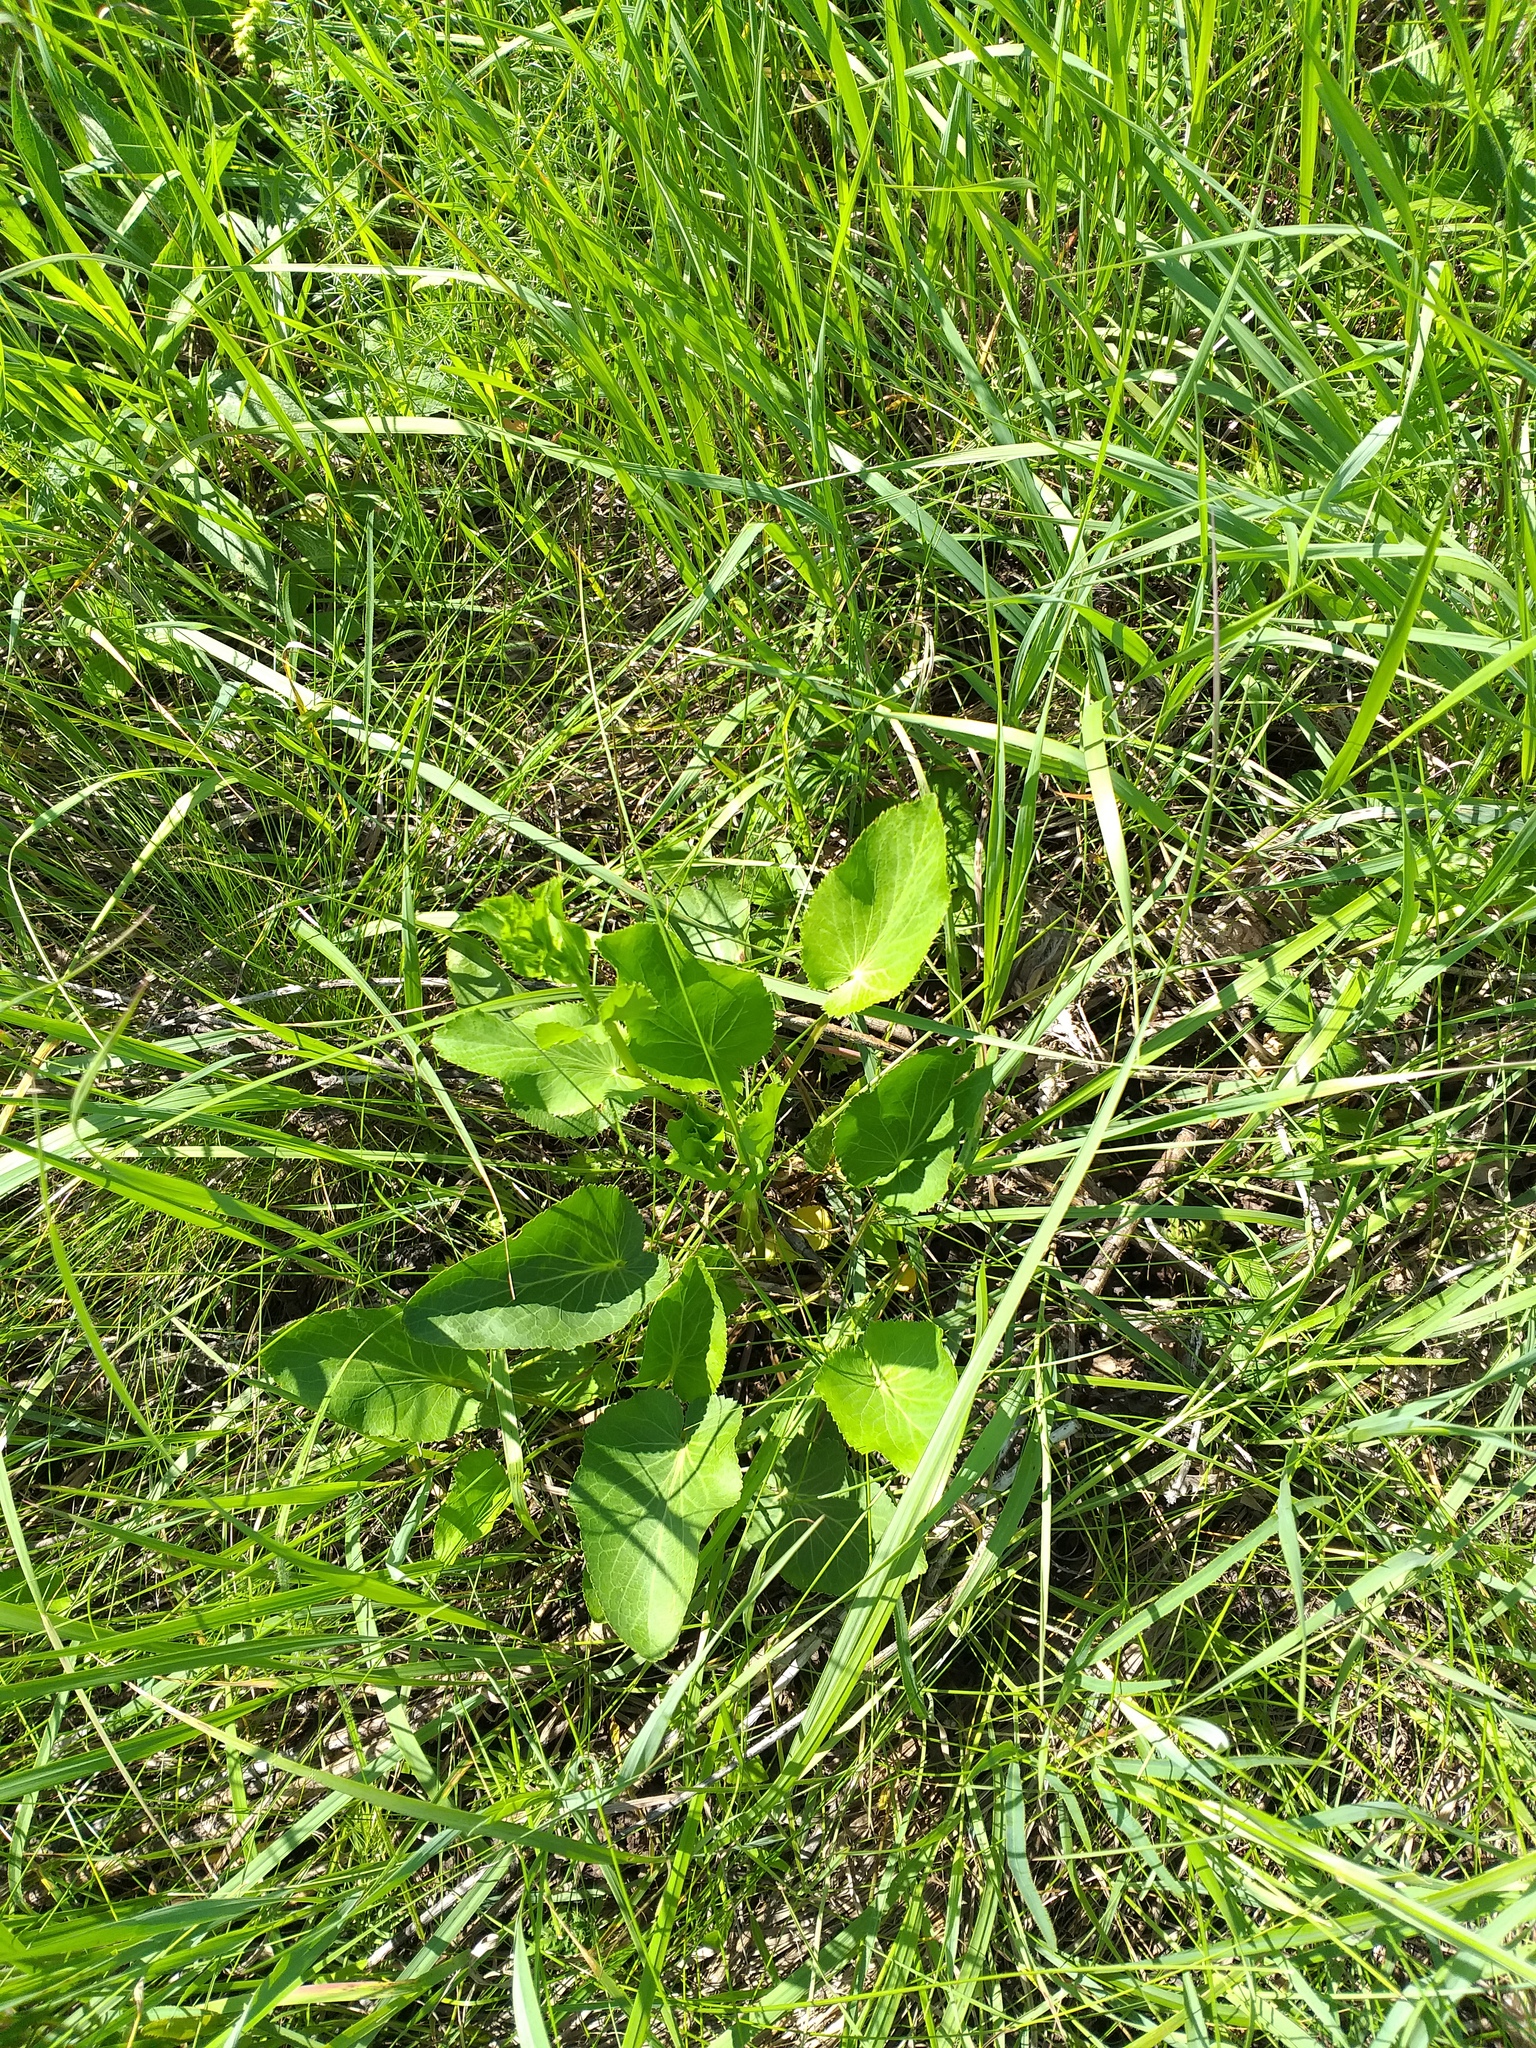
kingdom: Plantae
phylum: Tracheophyta
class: Magnoliopsida
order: Apiales
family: Apiaceae
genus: Eryngium
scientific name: Eryngium planum
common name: Blue eryngo
